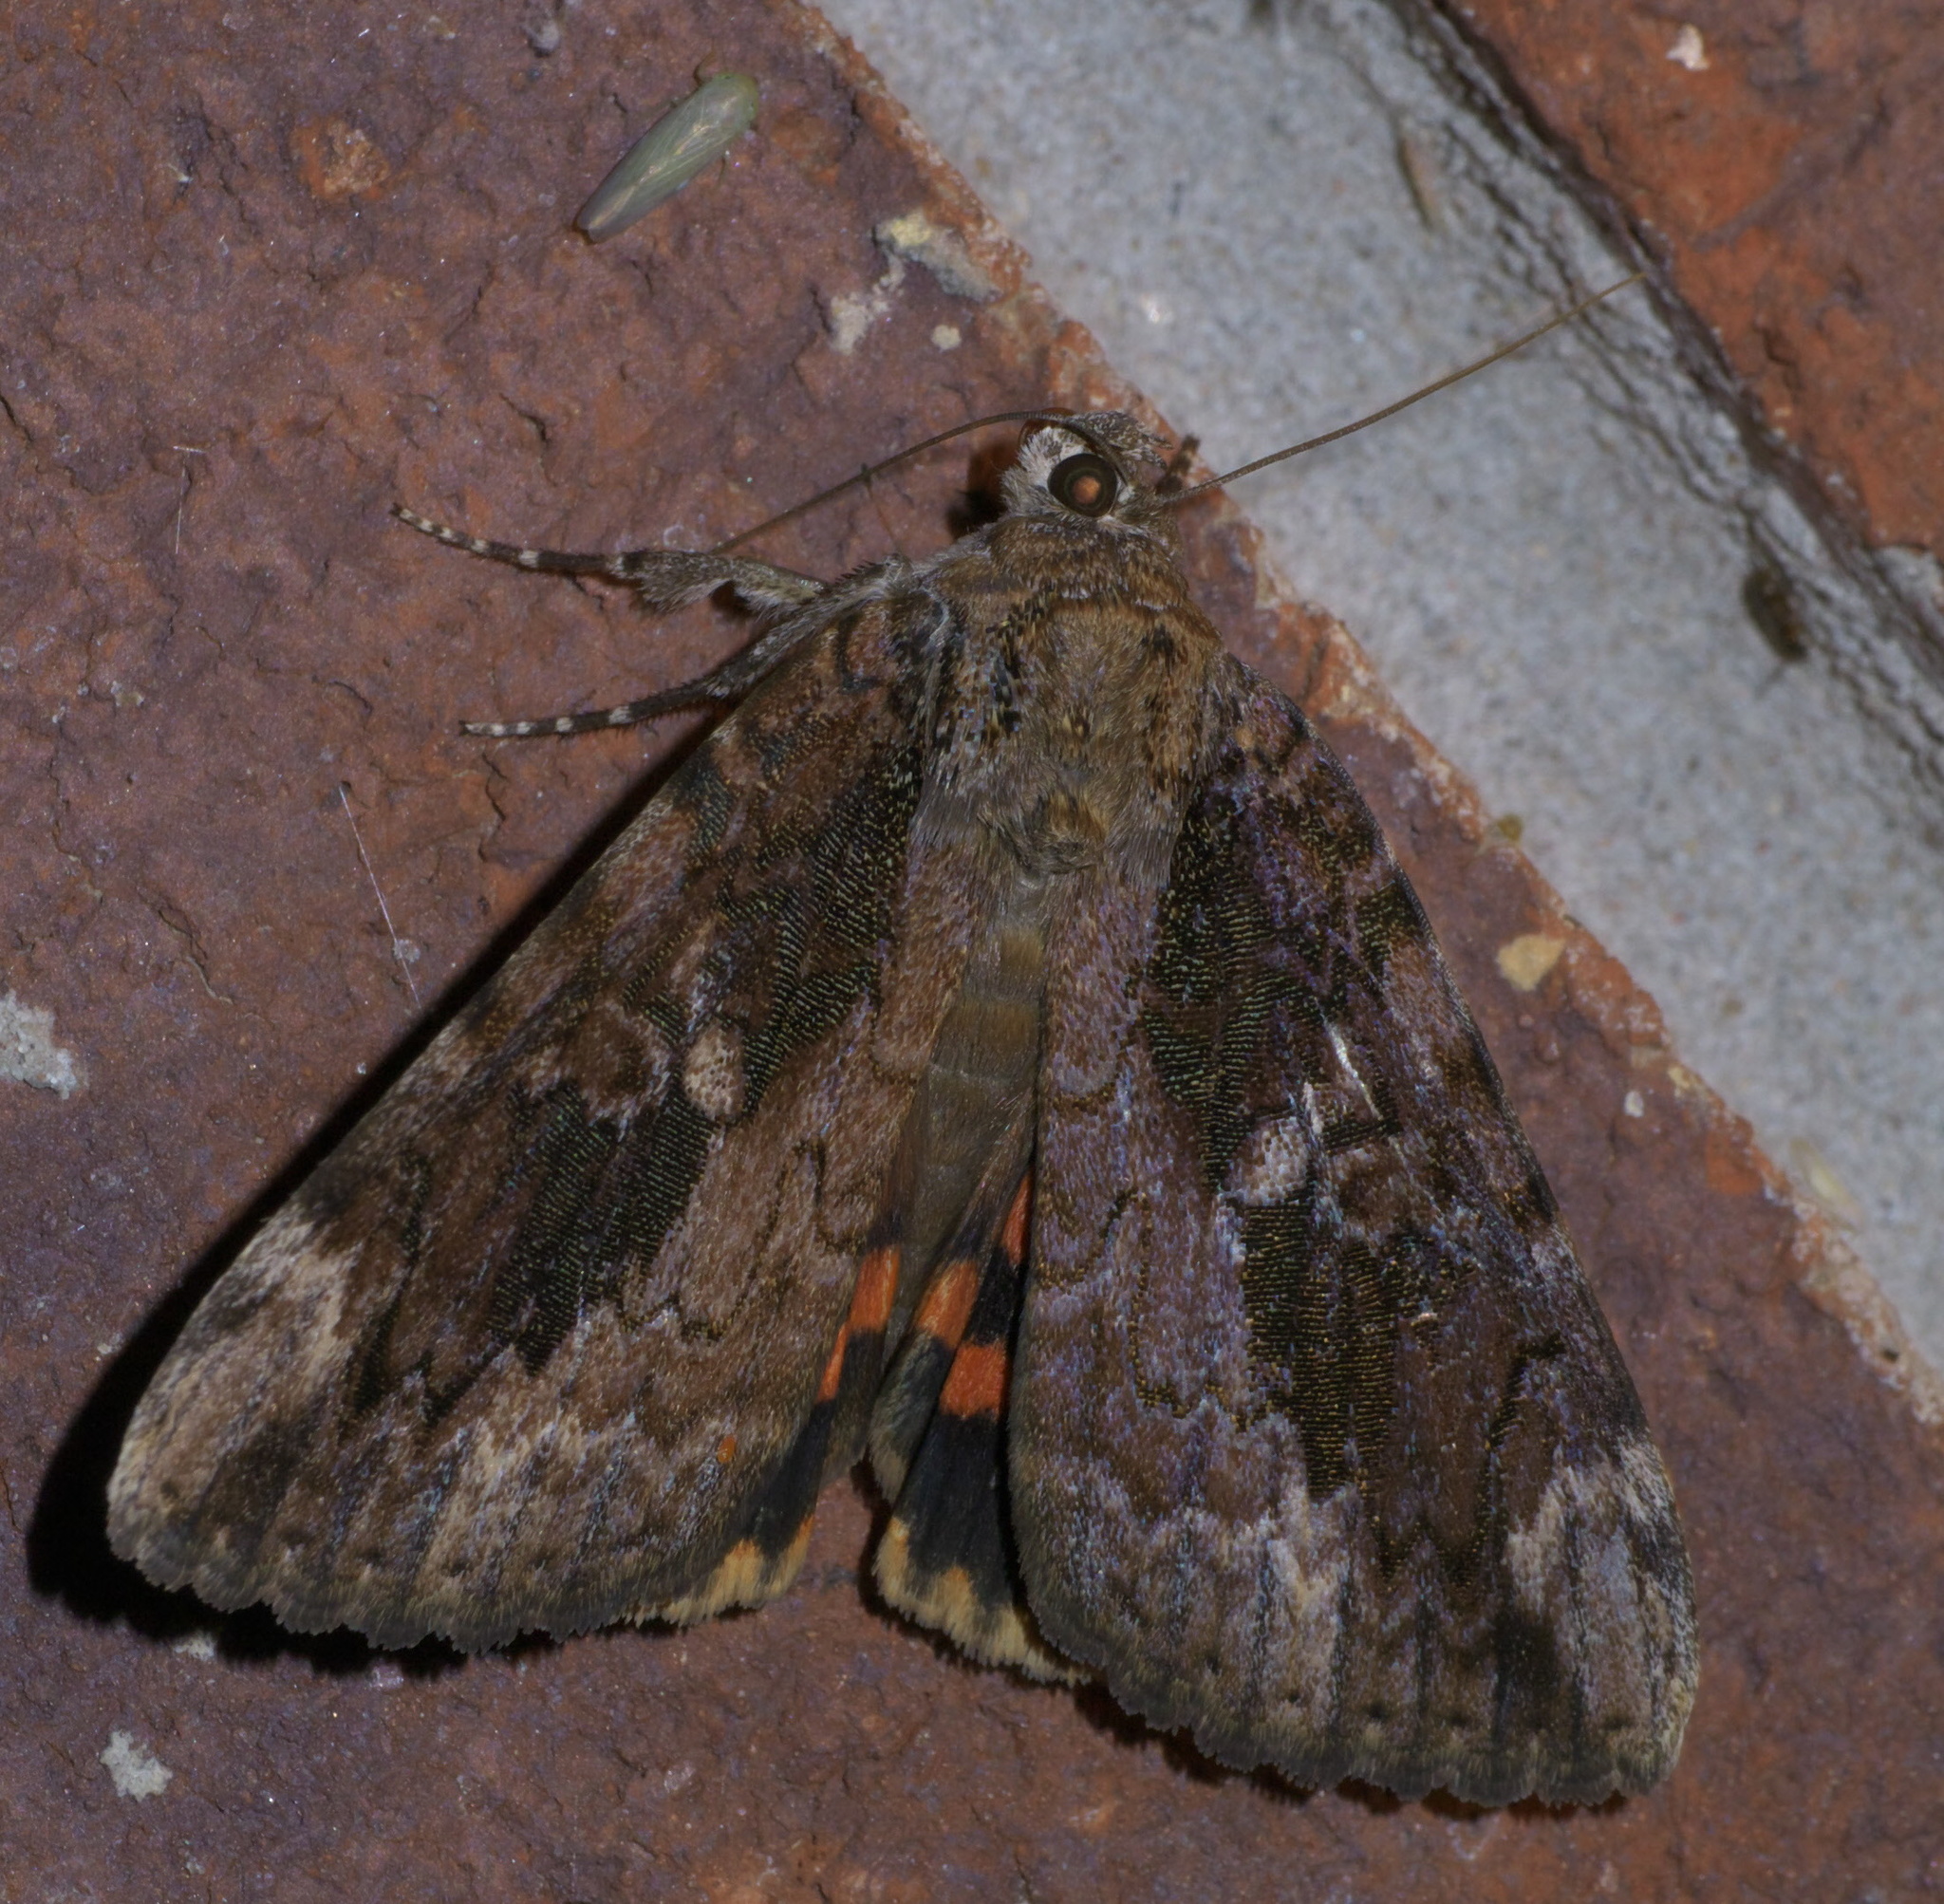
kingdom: Animalia
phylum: Arthropoda
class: Insecta
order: Lepidoptera
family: Erebidae
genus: Catocala
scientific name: Catocala innubens
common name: Betrothed underwing
